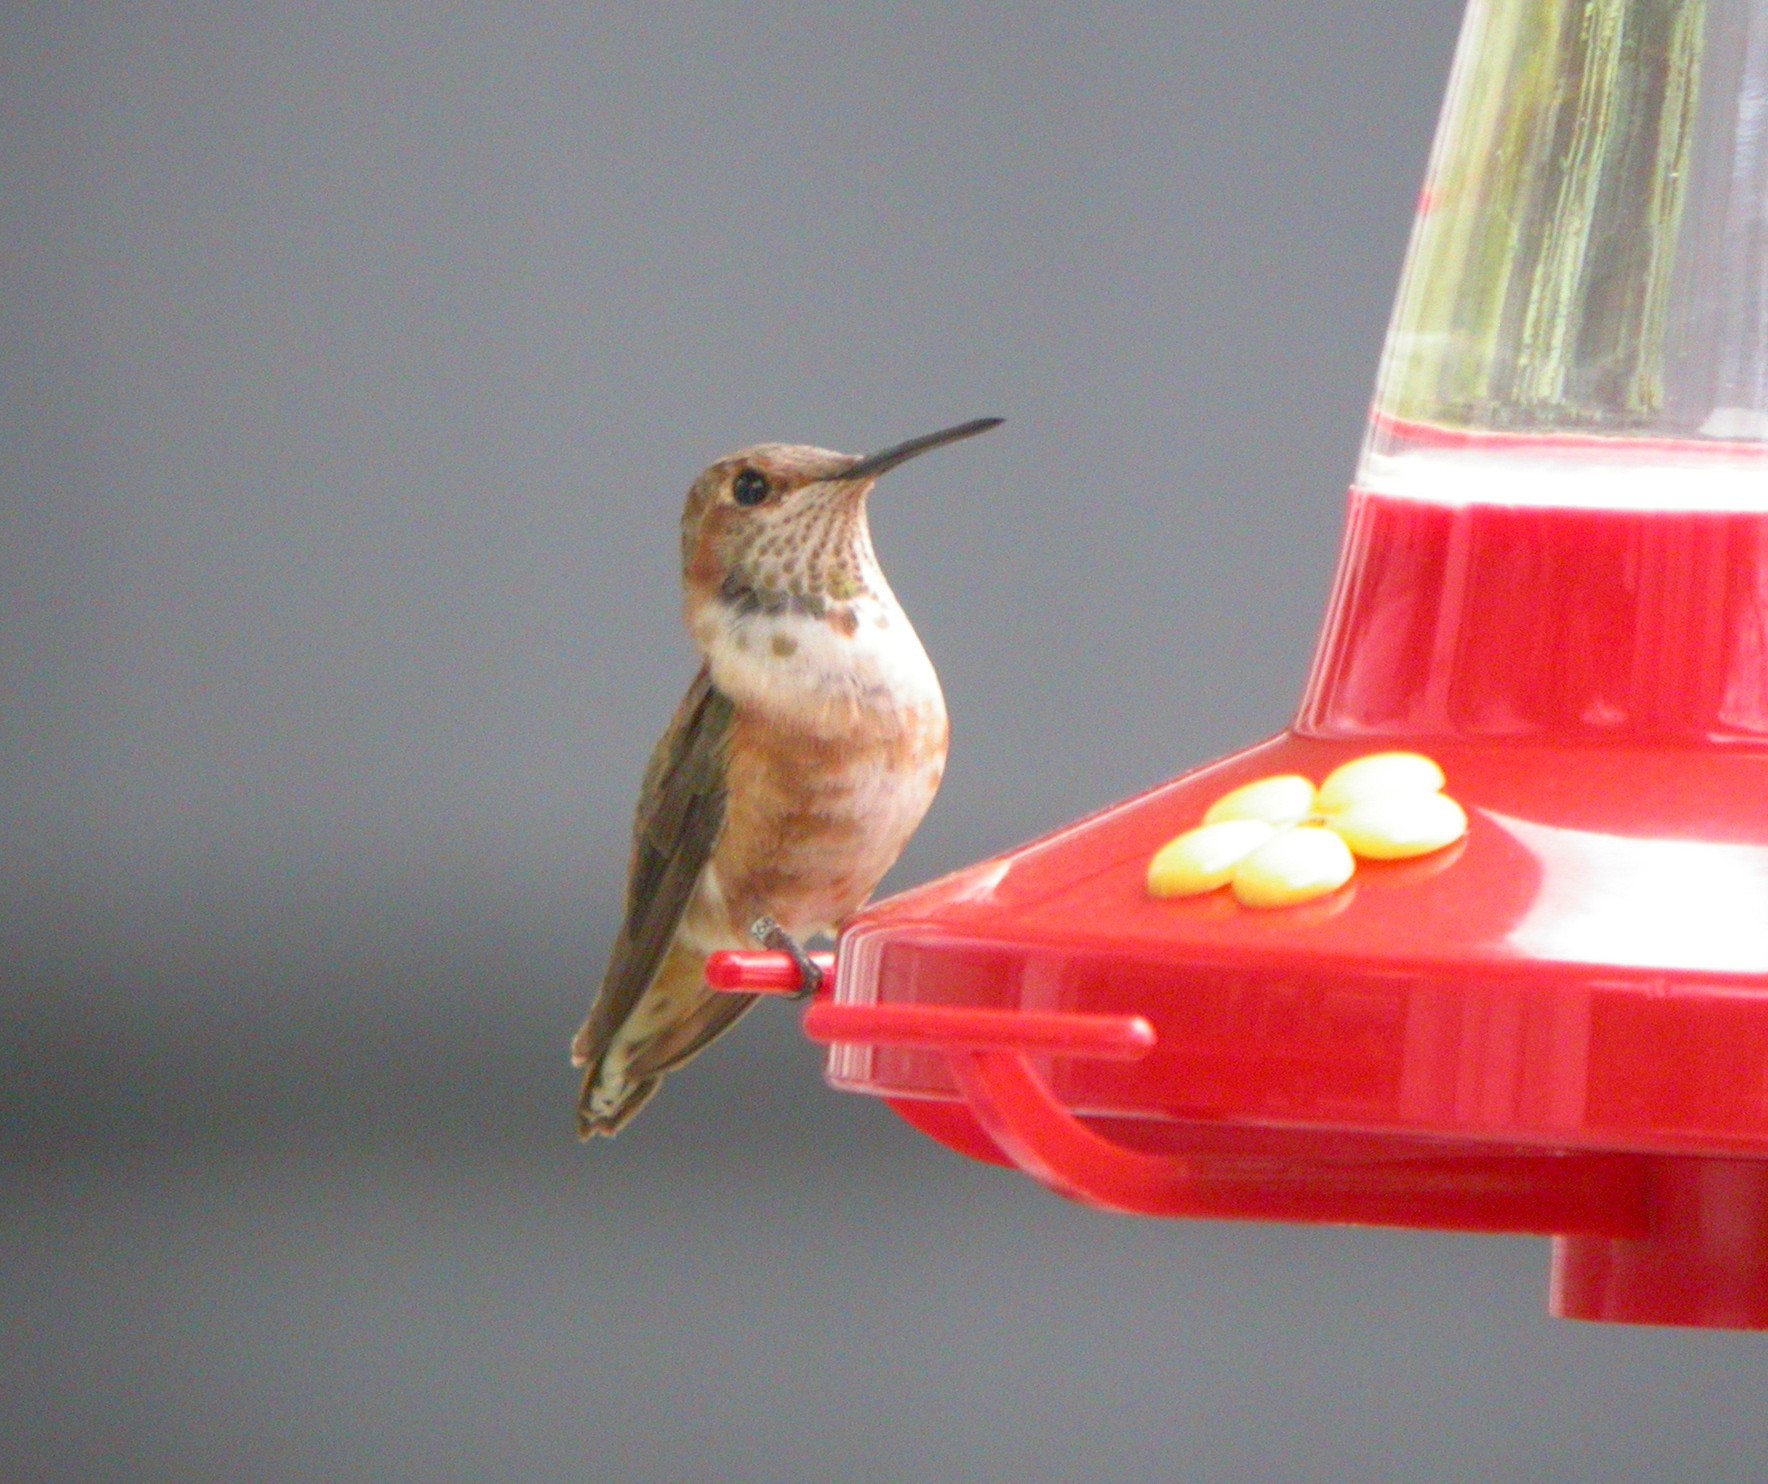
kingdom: Animalia
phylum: Chordata
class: Aves
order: Apodiformes
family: Trochilidae
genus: Selasphorus
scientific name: Selasphorus rufus
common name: Rufous hummingbird
